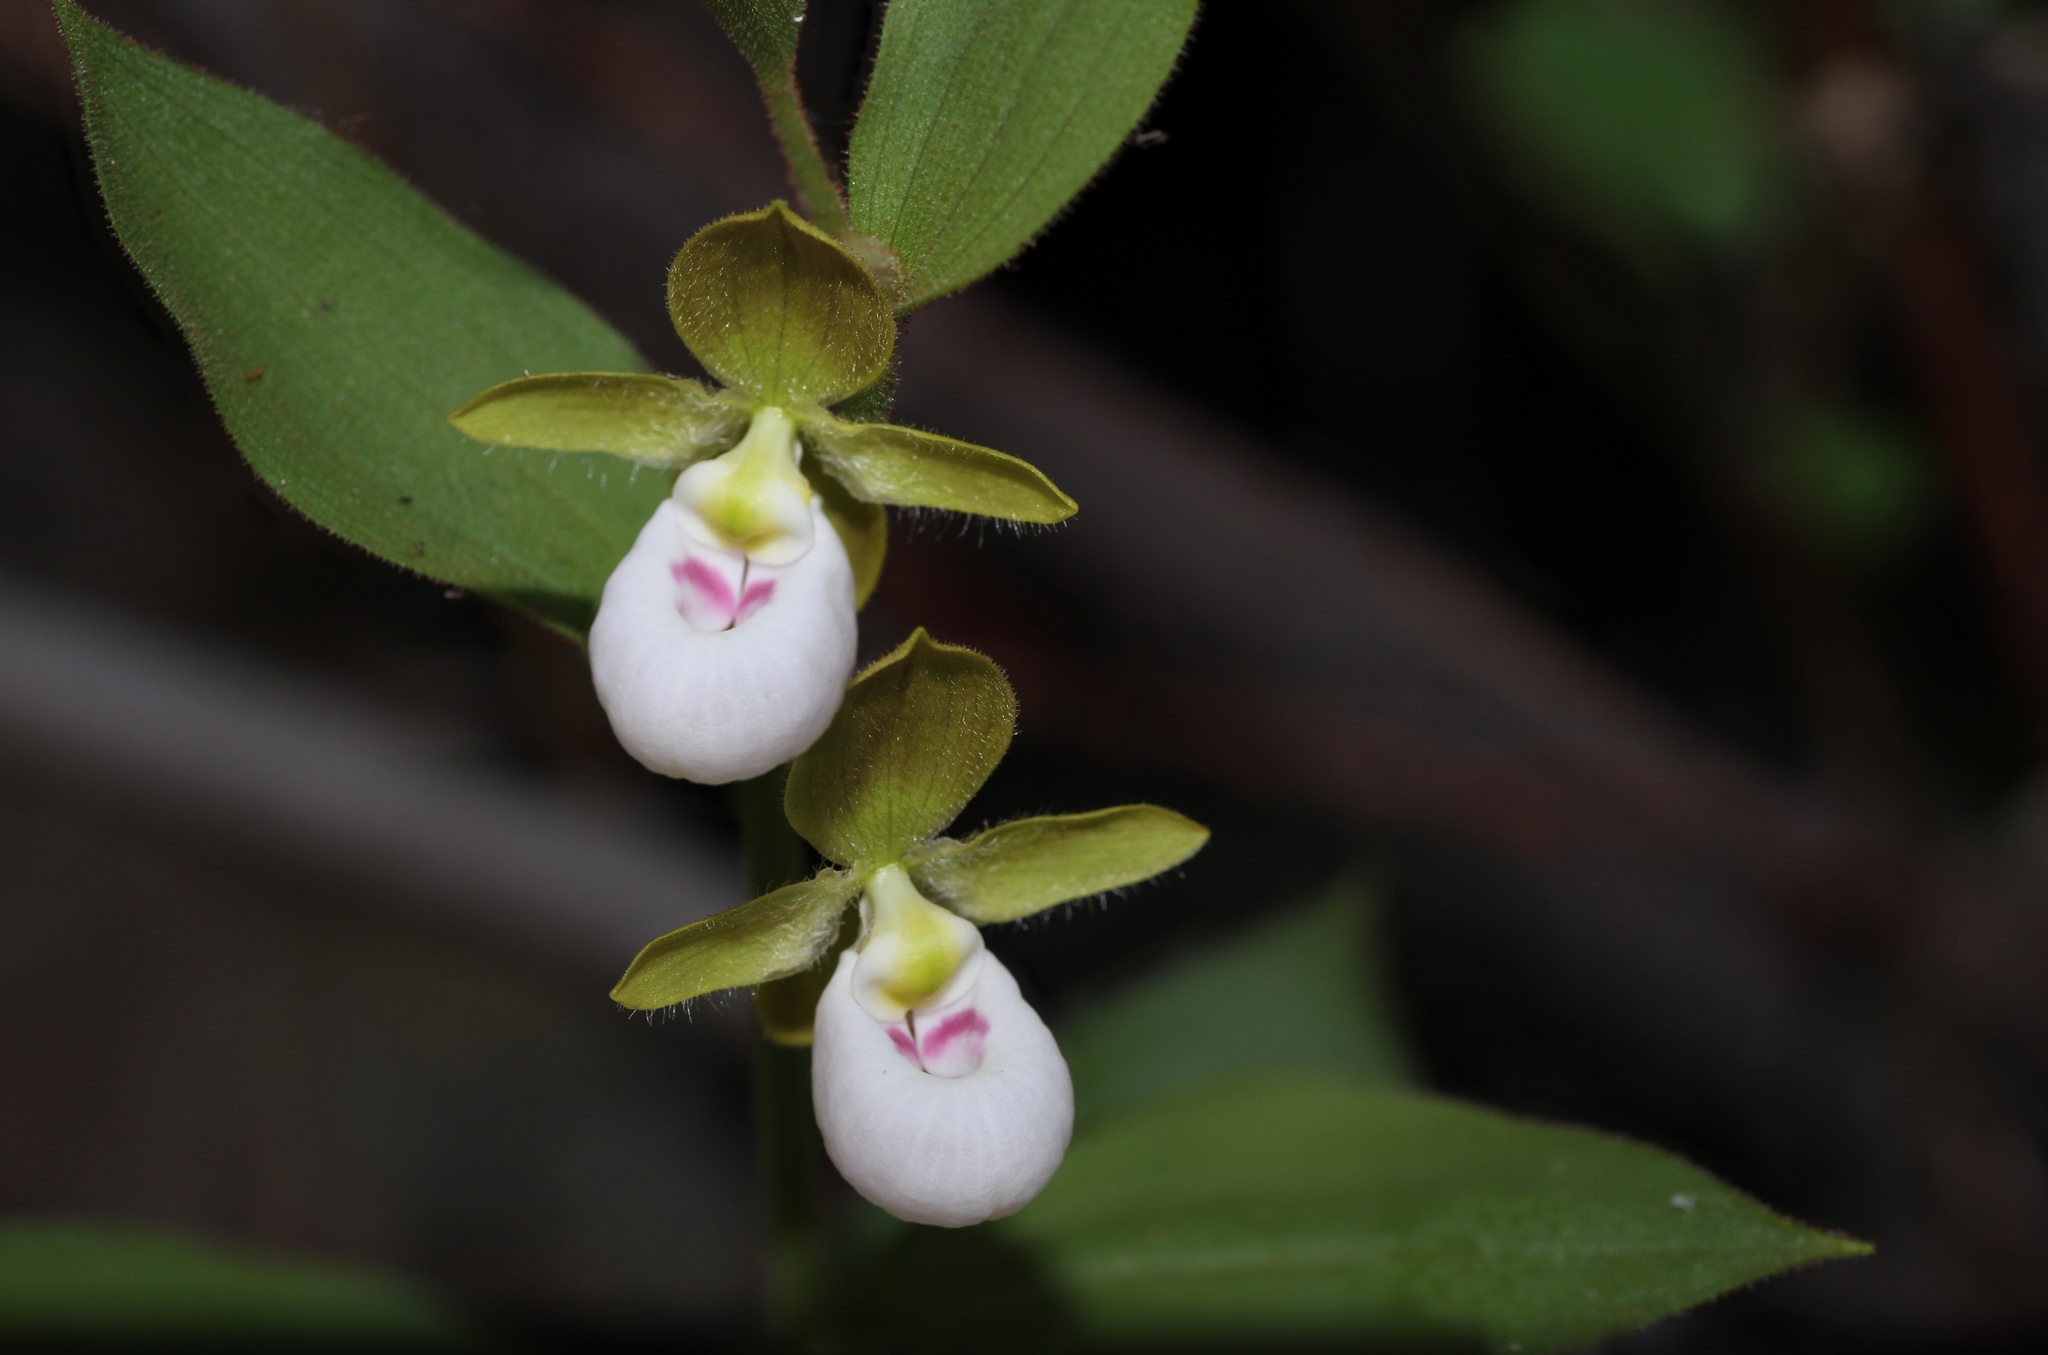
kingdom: Plantae
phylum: Tracheophyta
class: Liliopsida
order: Asparagales
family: Orchidaceae
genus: Cypripedium
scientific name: Cypripedium californicum
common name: California lady's slipper
